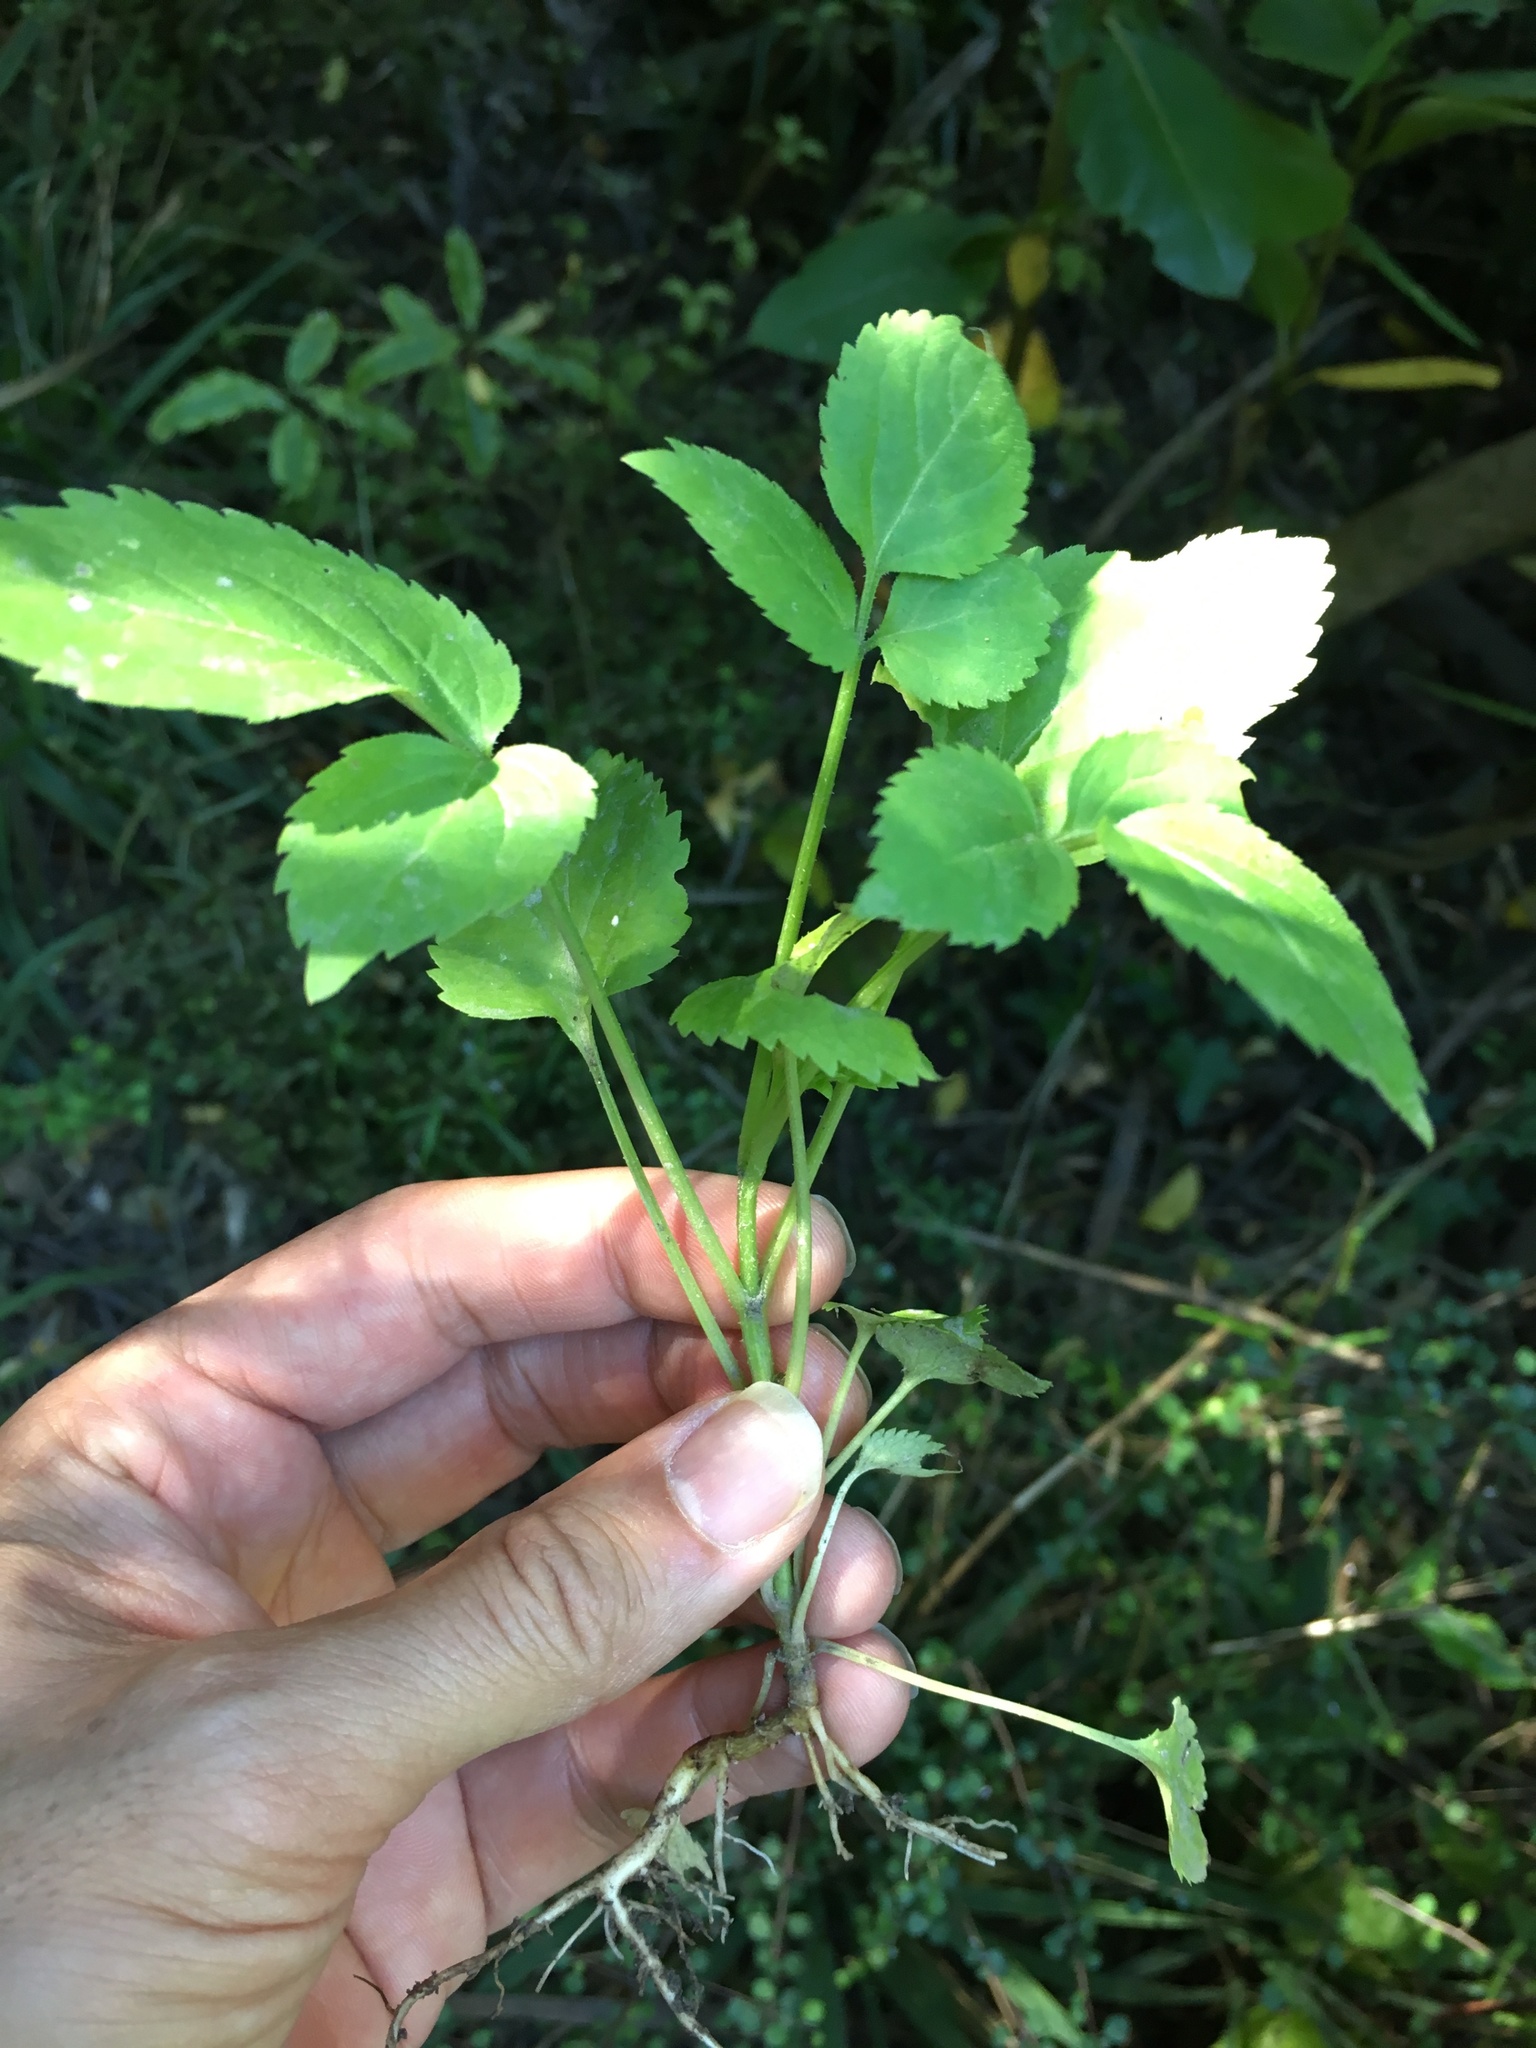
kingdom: Plantae
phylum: Tracheophyta
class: Magnoliopsida
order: Dipsacales
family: Viburnaceae
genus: Sambucus
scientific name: Sambucus nigra
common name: Elder
